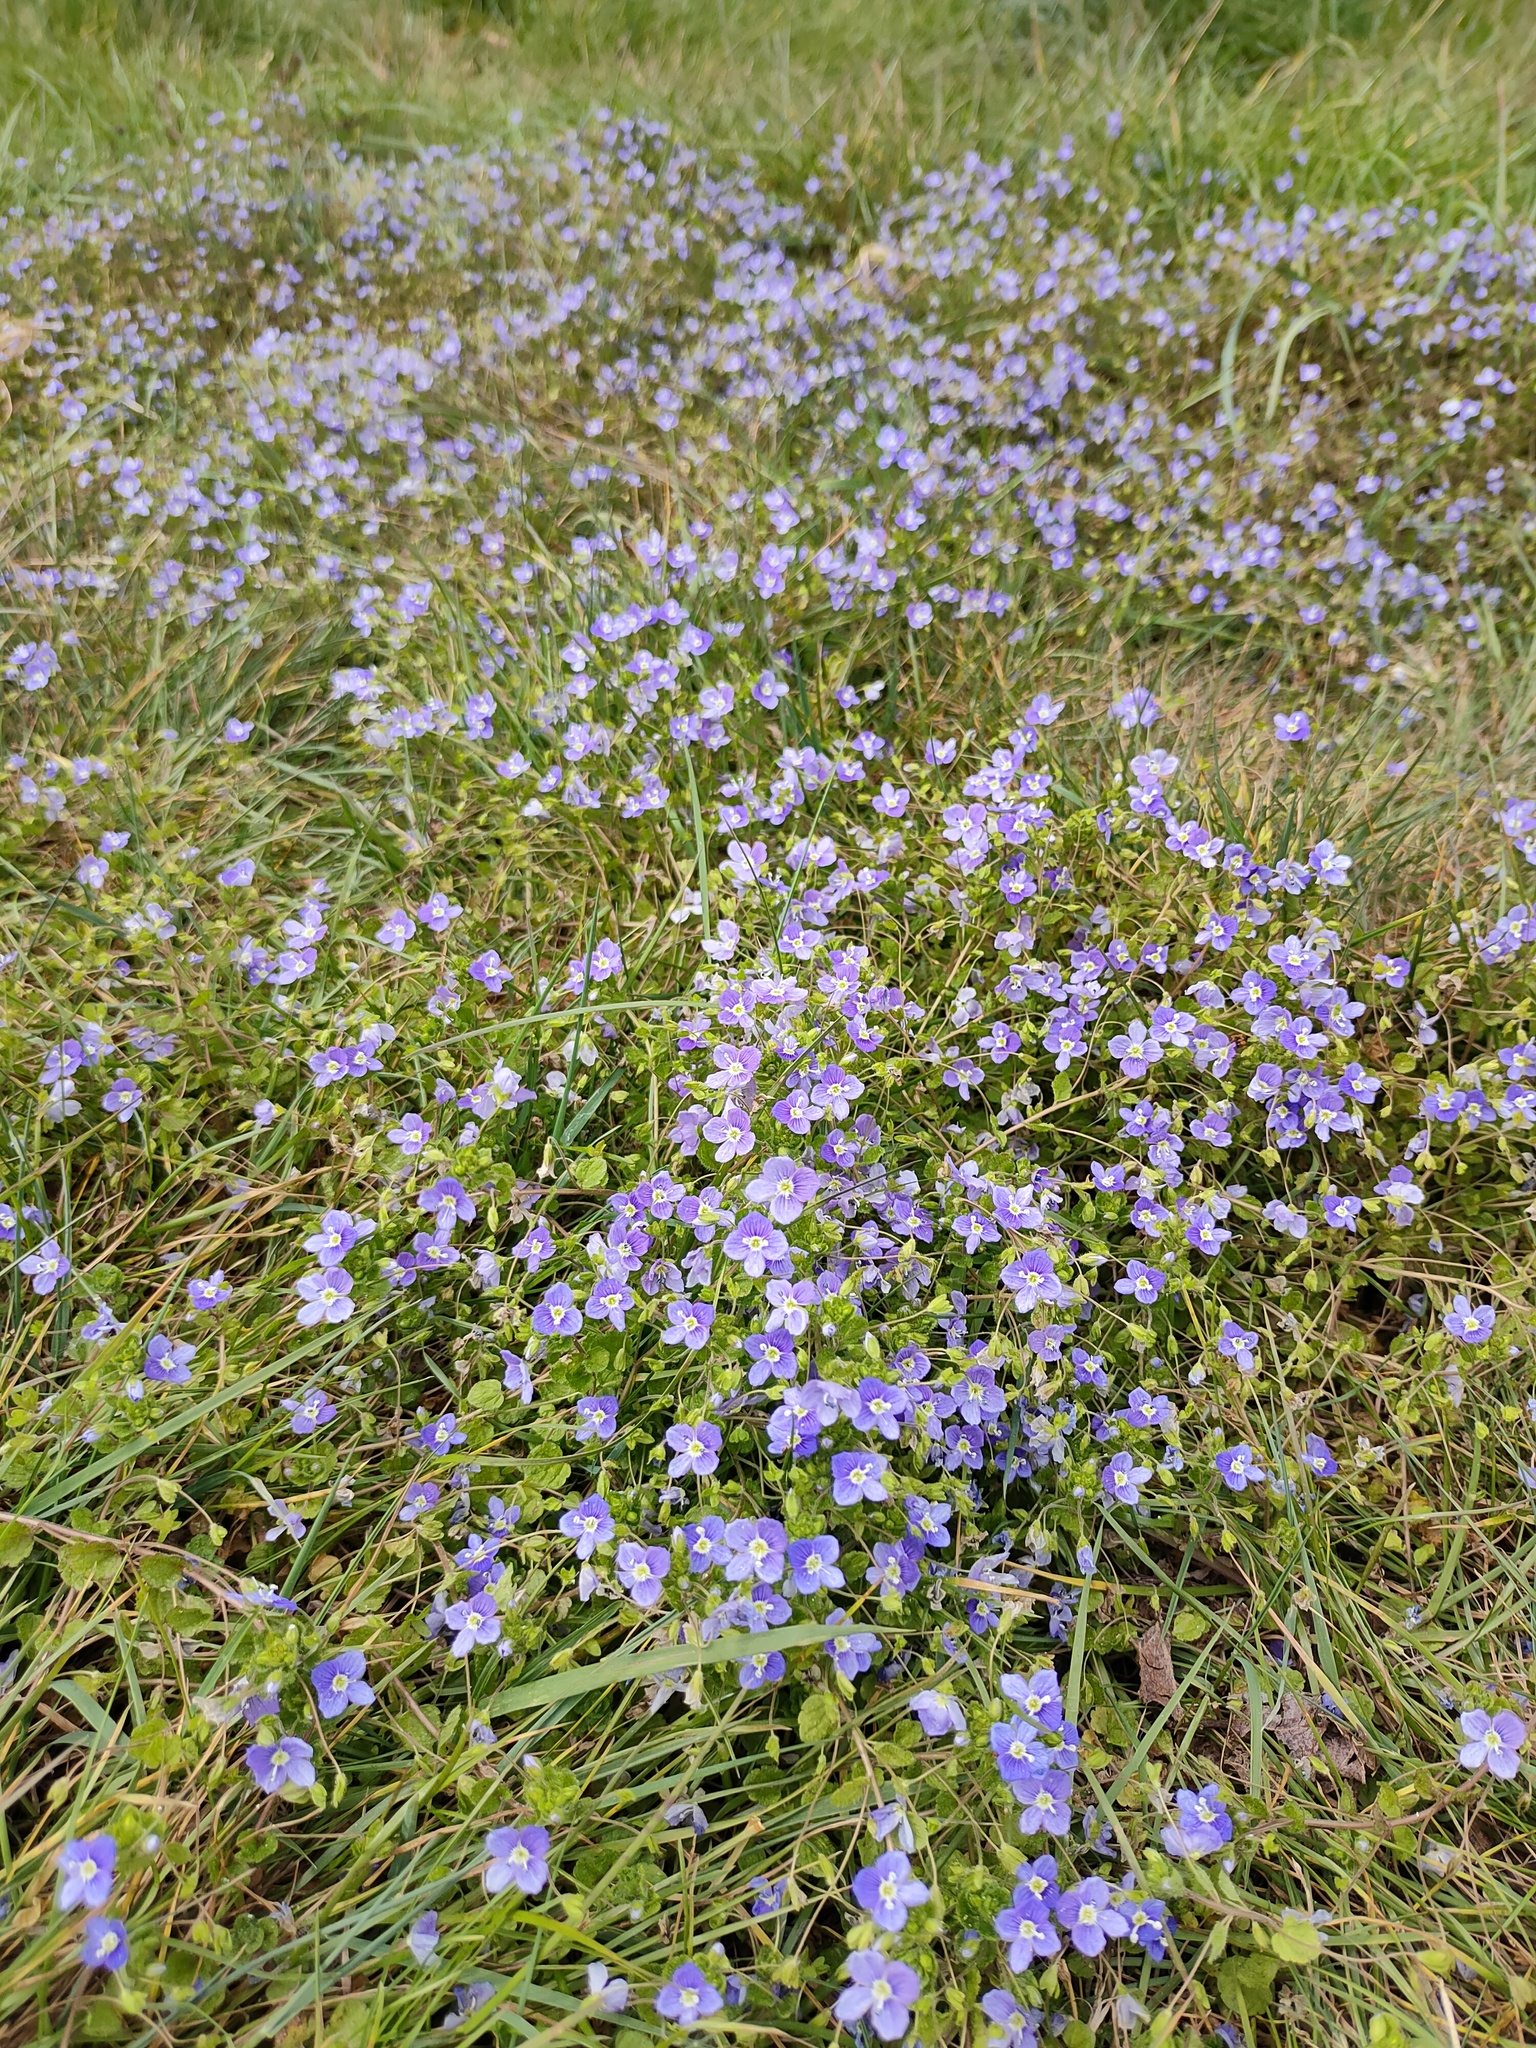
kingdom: Plantae
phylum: Tracheophyta
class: Magnoliopsida
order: Lamiales
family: Plantaginaceae
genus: Veronica
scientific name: Veronica filiformis
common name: Slender speedwell
